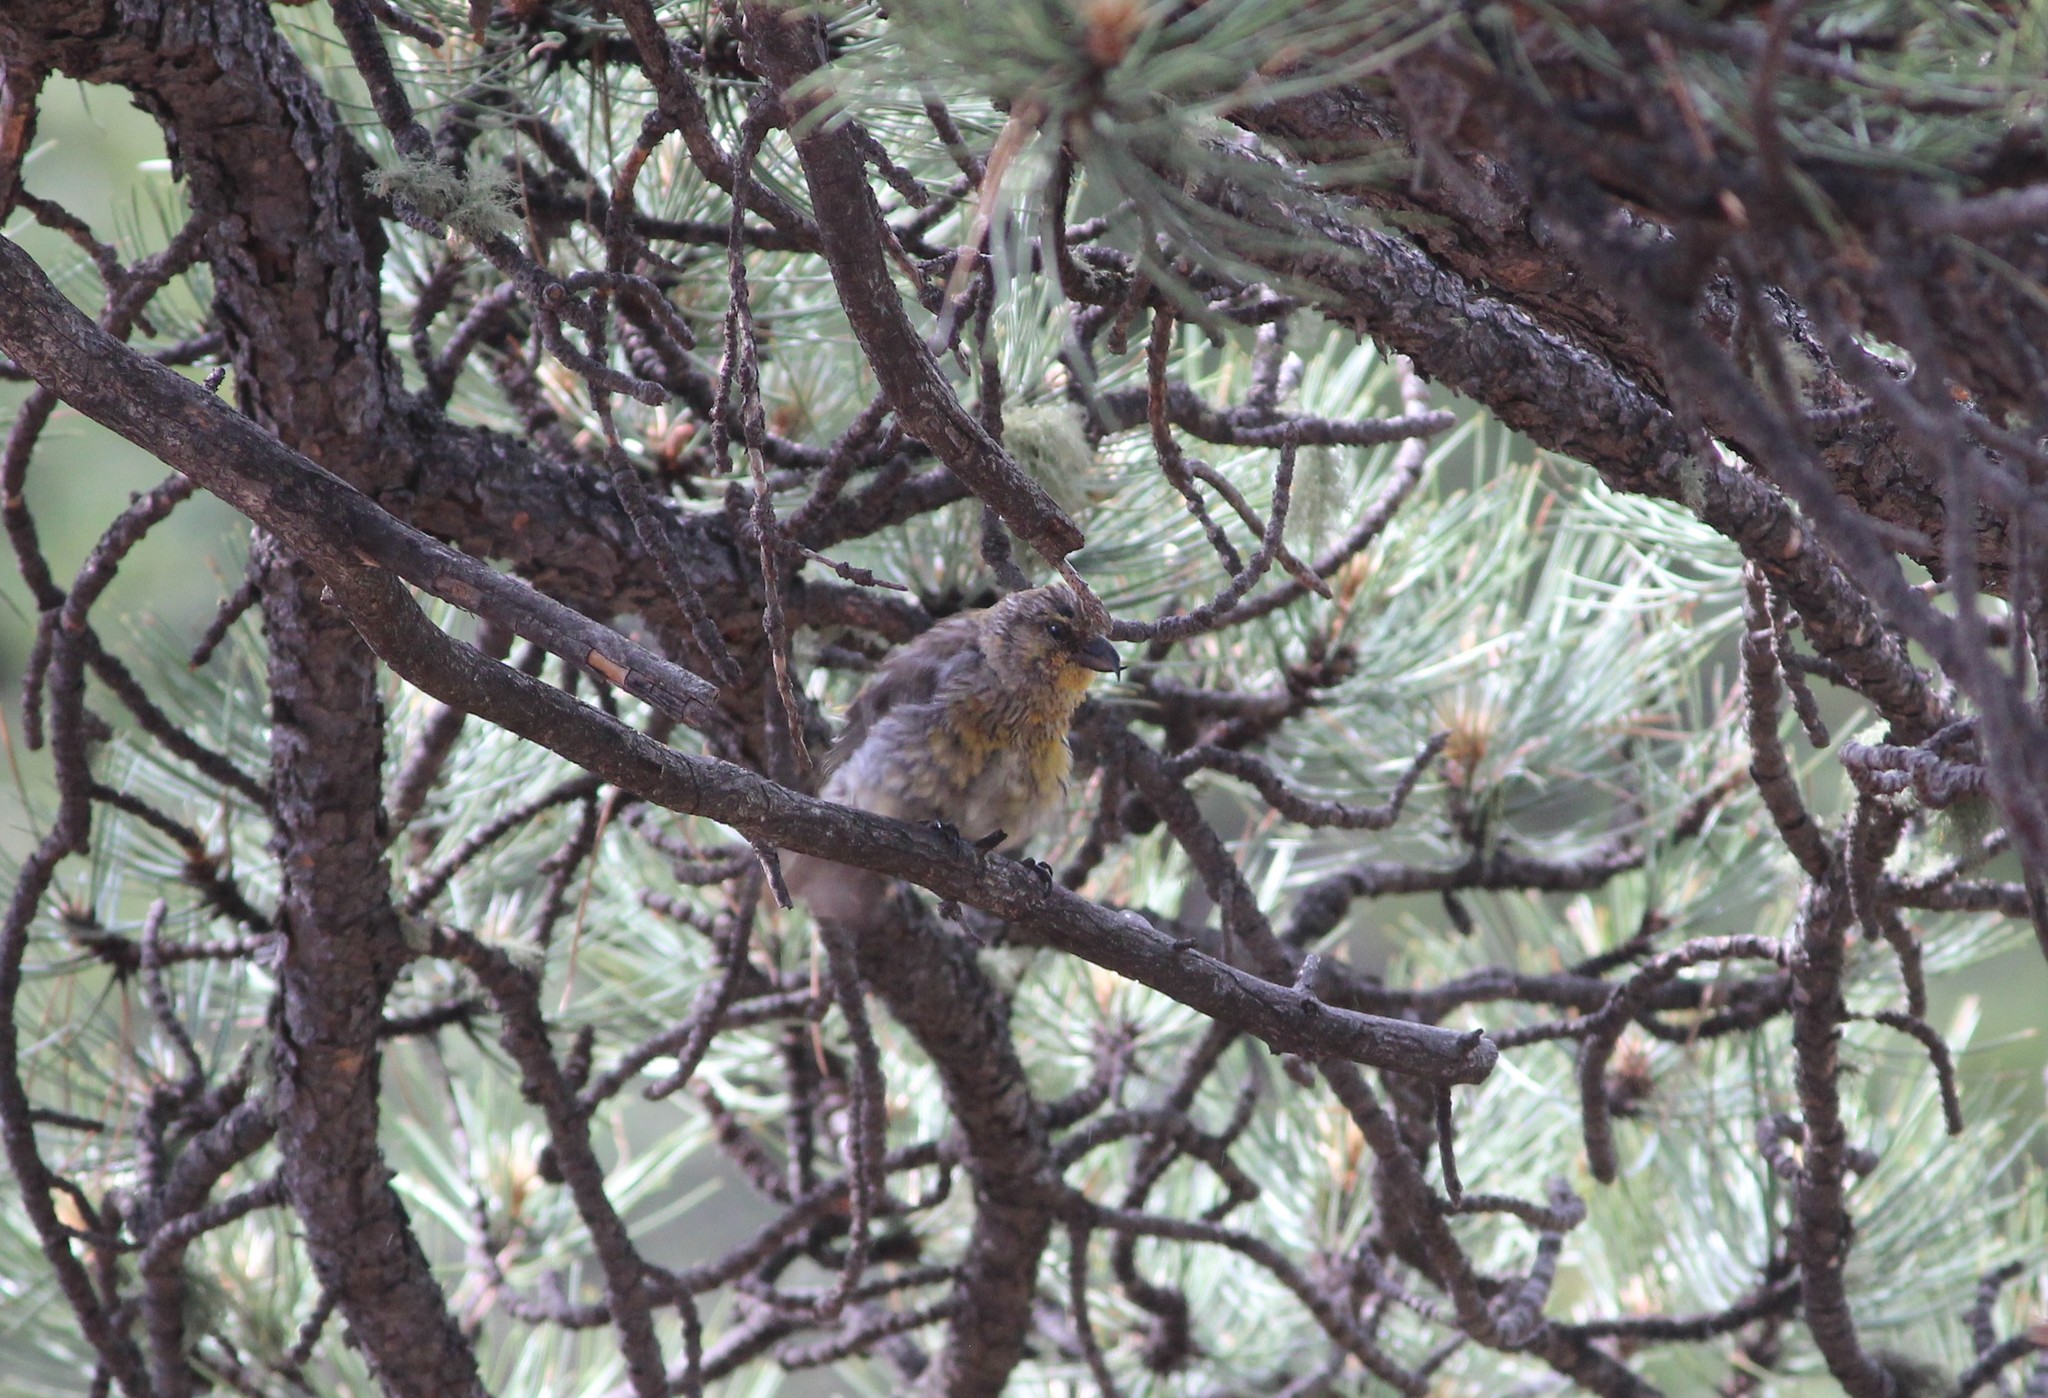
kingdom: Animalia
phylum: Chordata
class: Aves
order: Passeriformes
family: Fringillidae
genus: Loxia
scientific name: Loxia curvirostra
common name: Red crossbill
